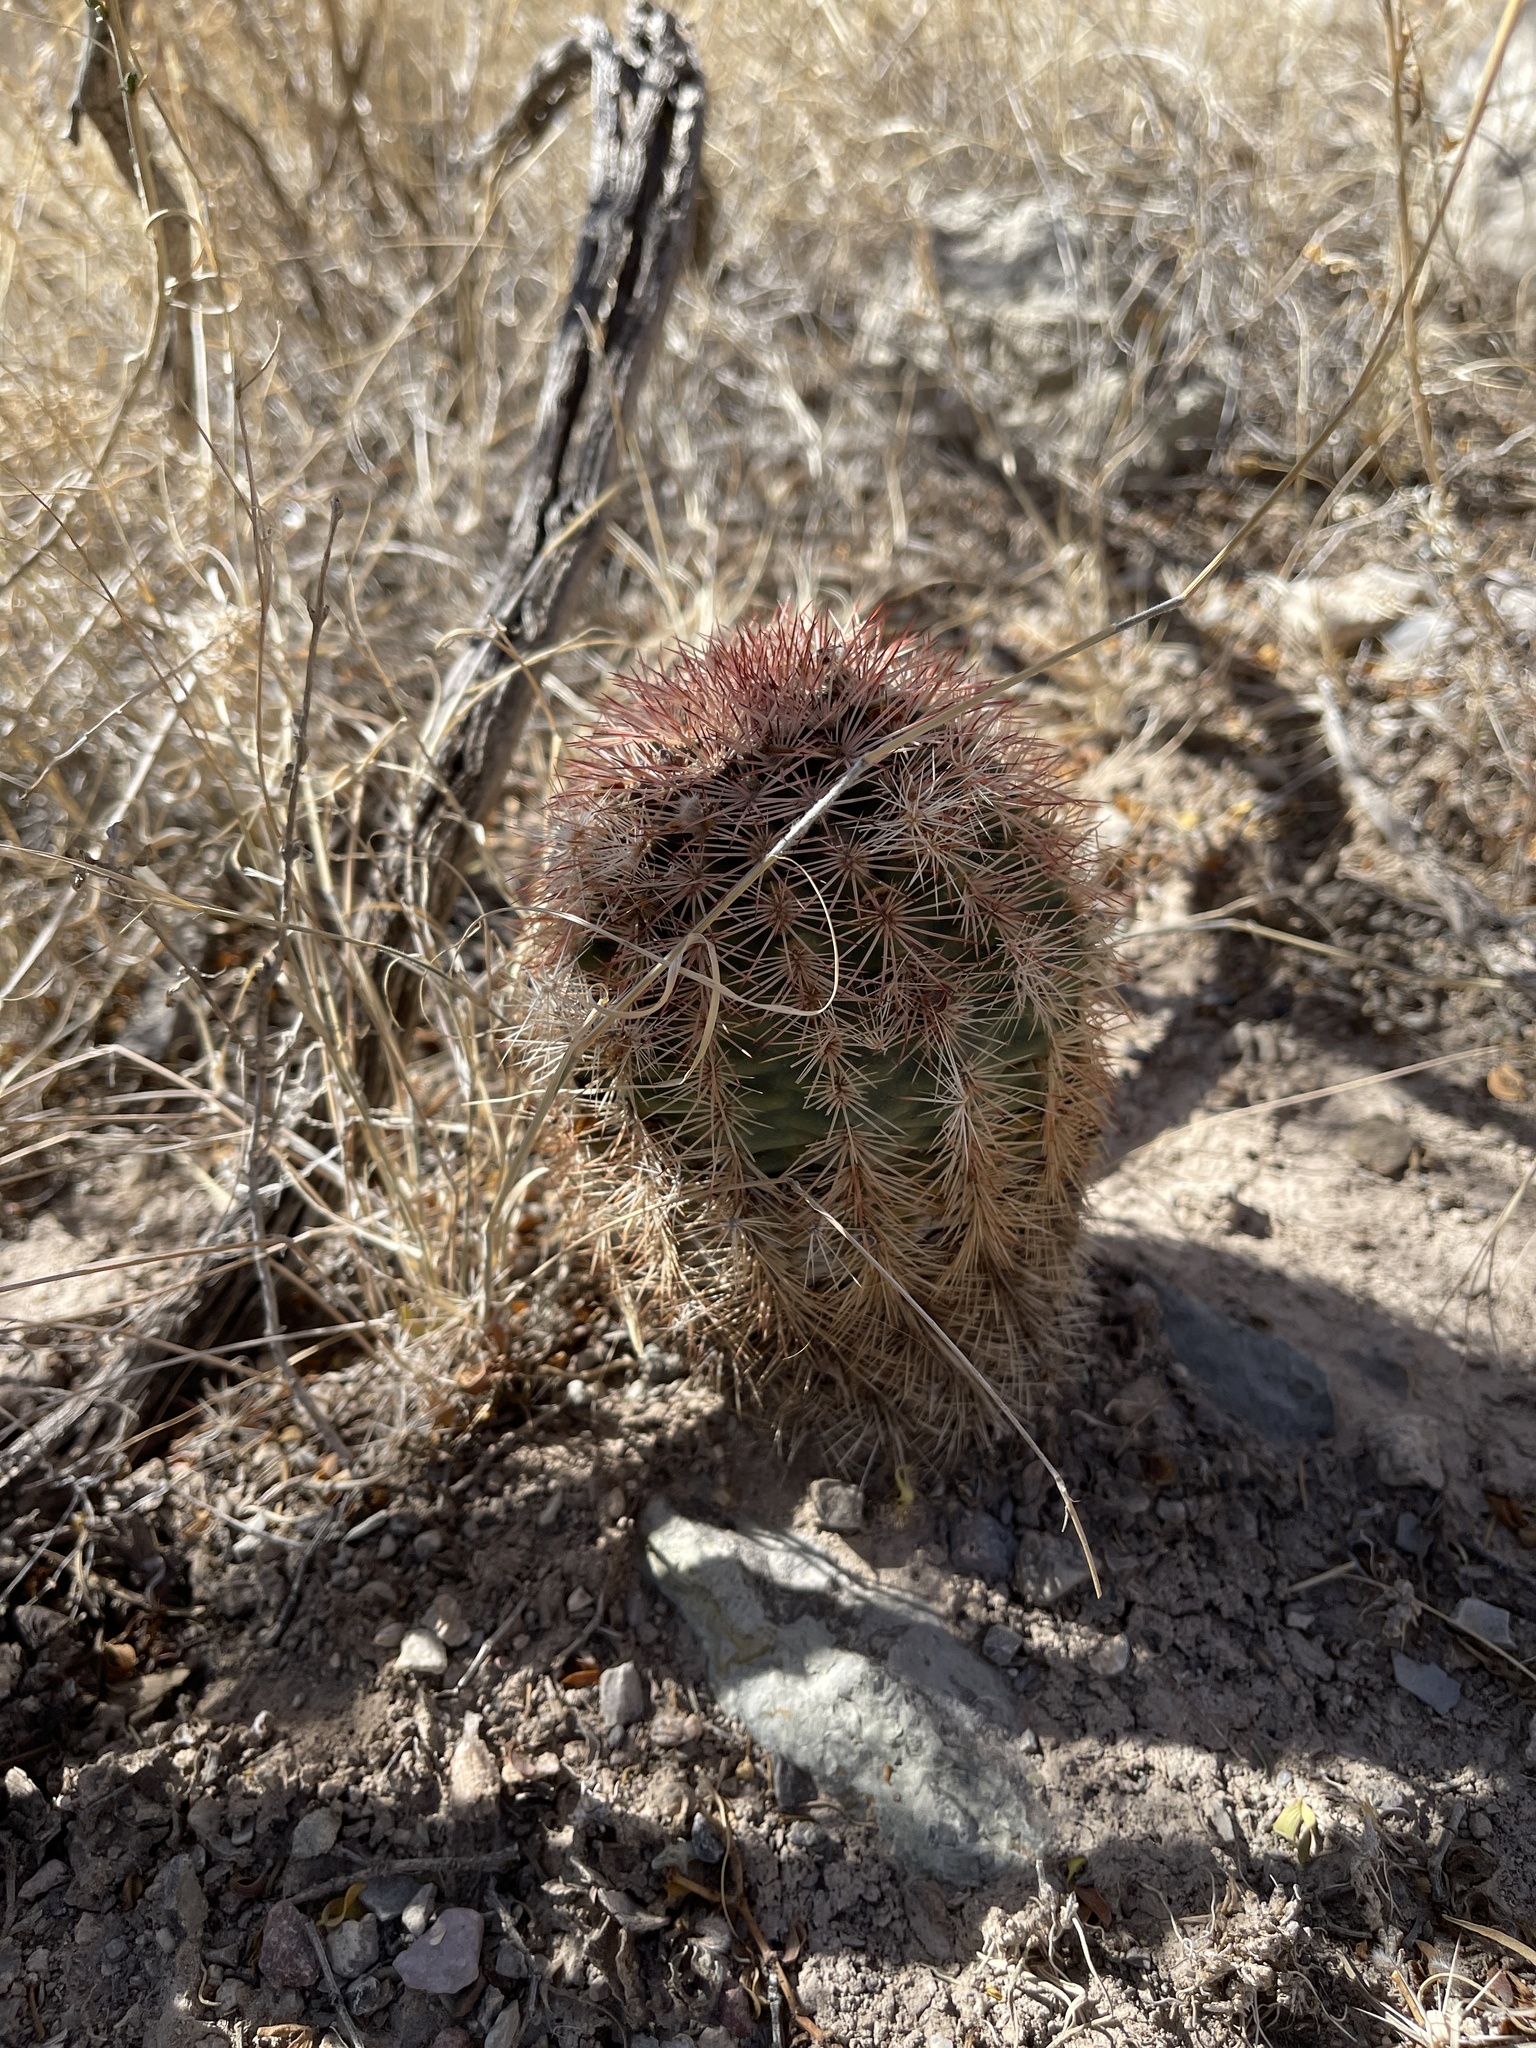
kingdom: Plantae
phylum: Tracheophyta
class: Magnoliopsida
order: Caryophyllales
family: Cactaceae
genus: Echinocereus
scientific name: Echinocereus dasyacanthus
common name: Spiny hedgehog cactus
